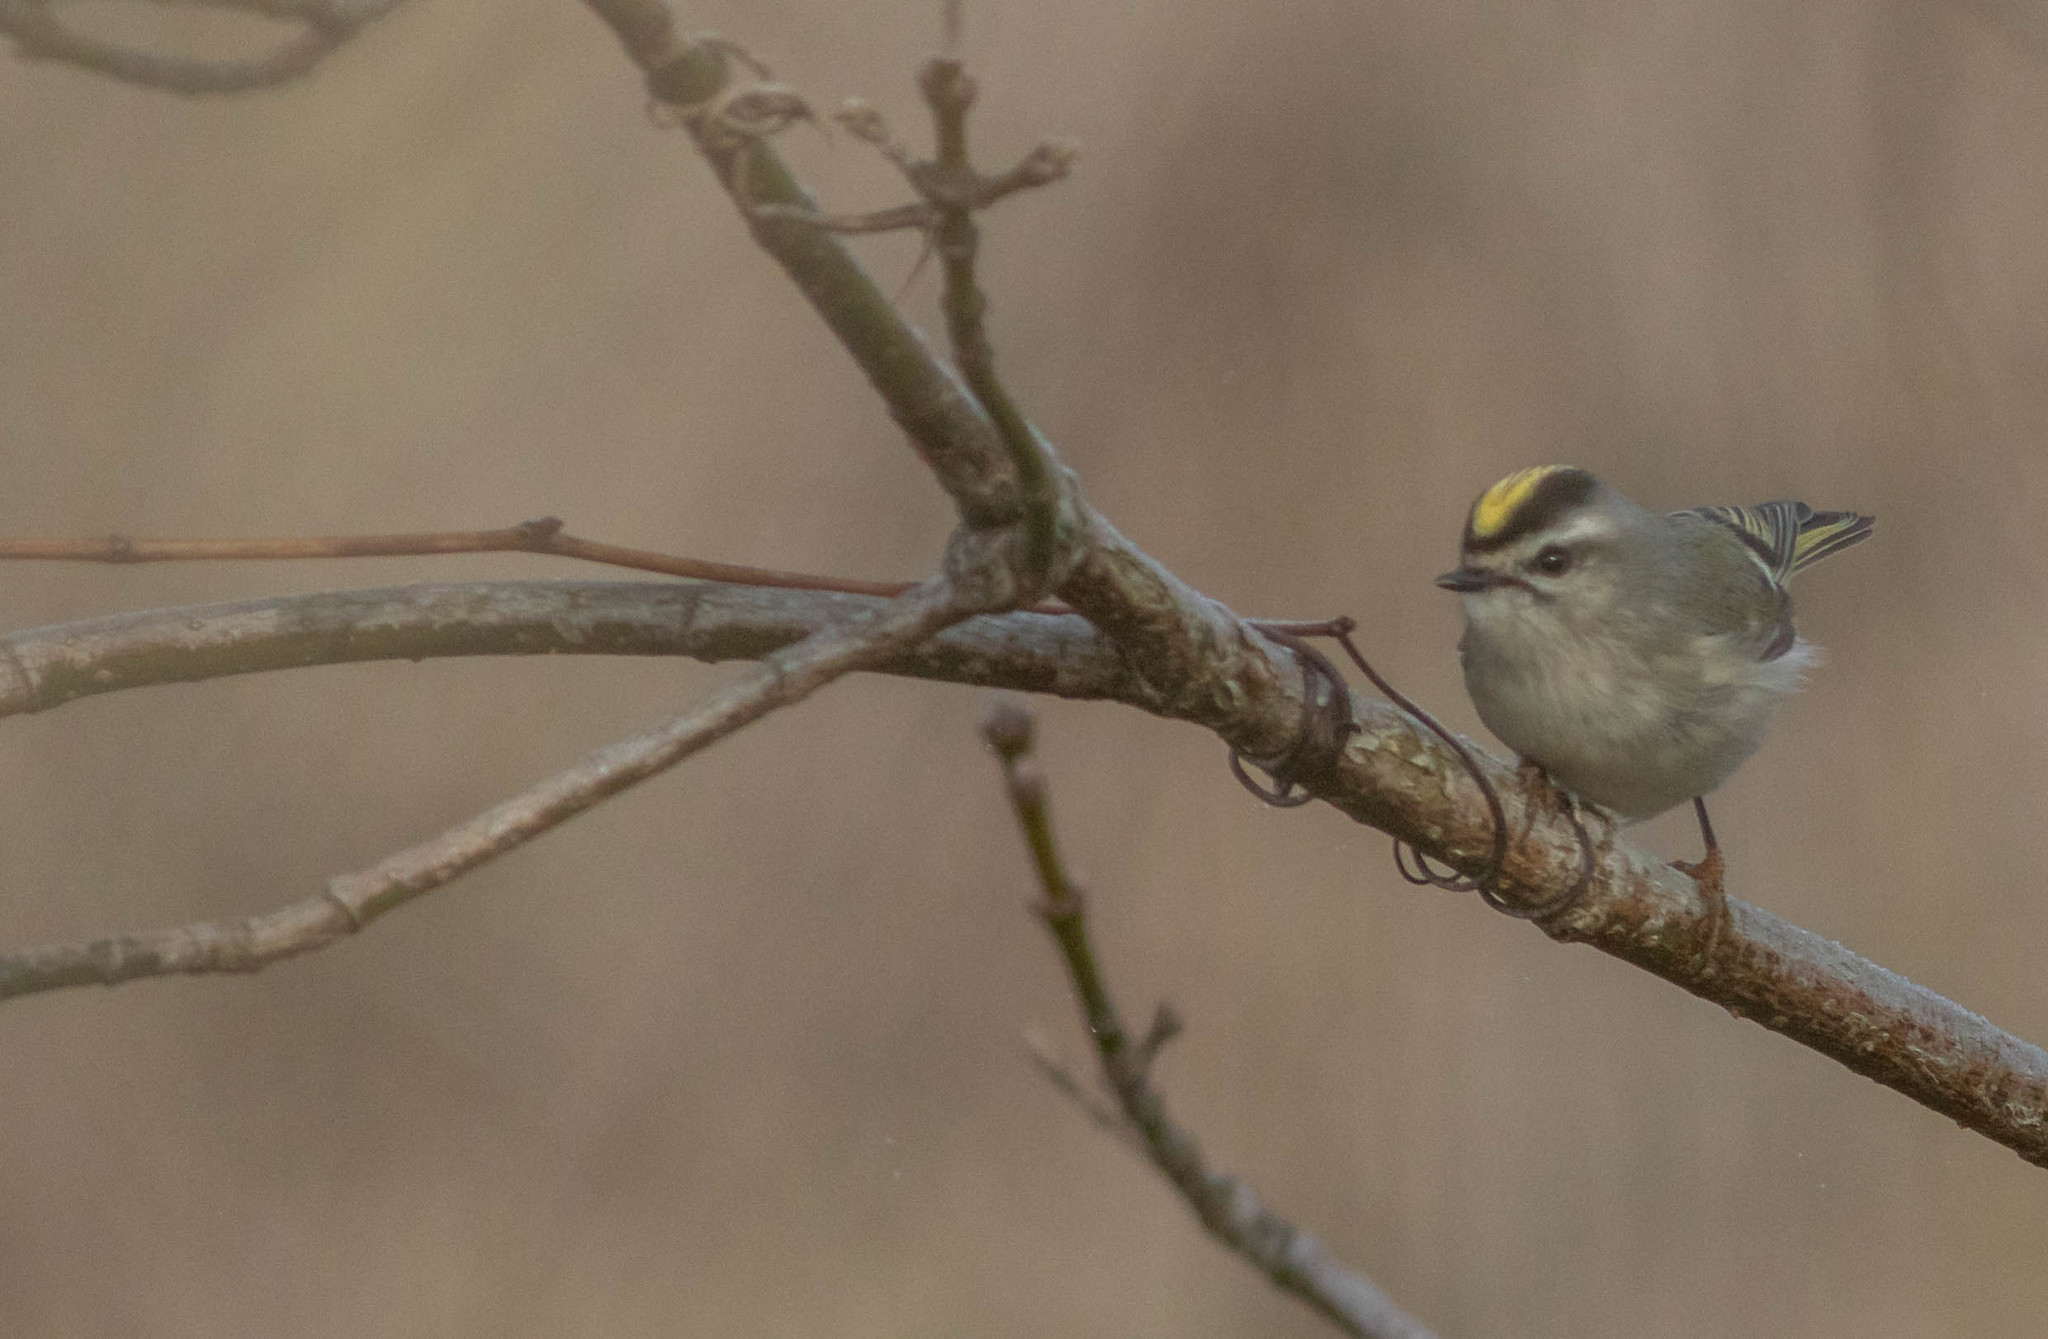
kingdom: Animalia
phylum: Chordata
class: Aves
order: Passeriformes
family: Regulidae
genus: Regulus
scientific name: Regulus satrapa
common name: Golden-crowned kinglet
